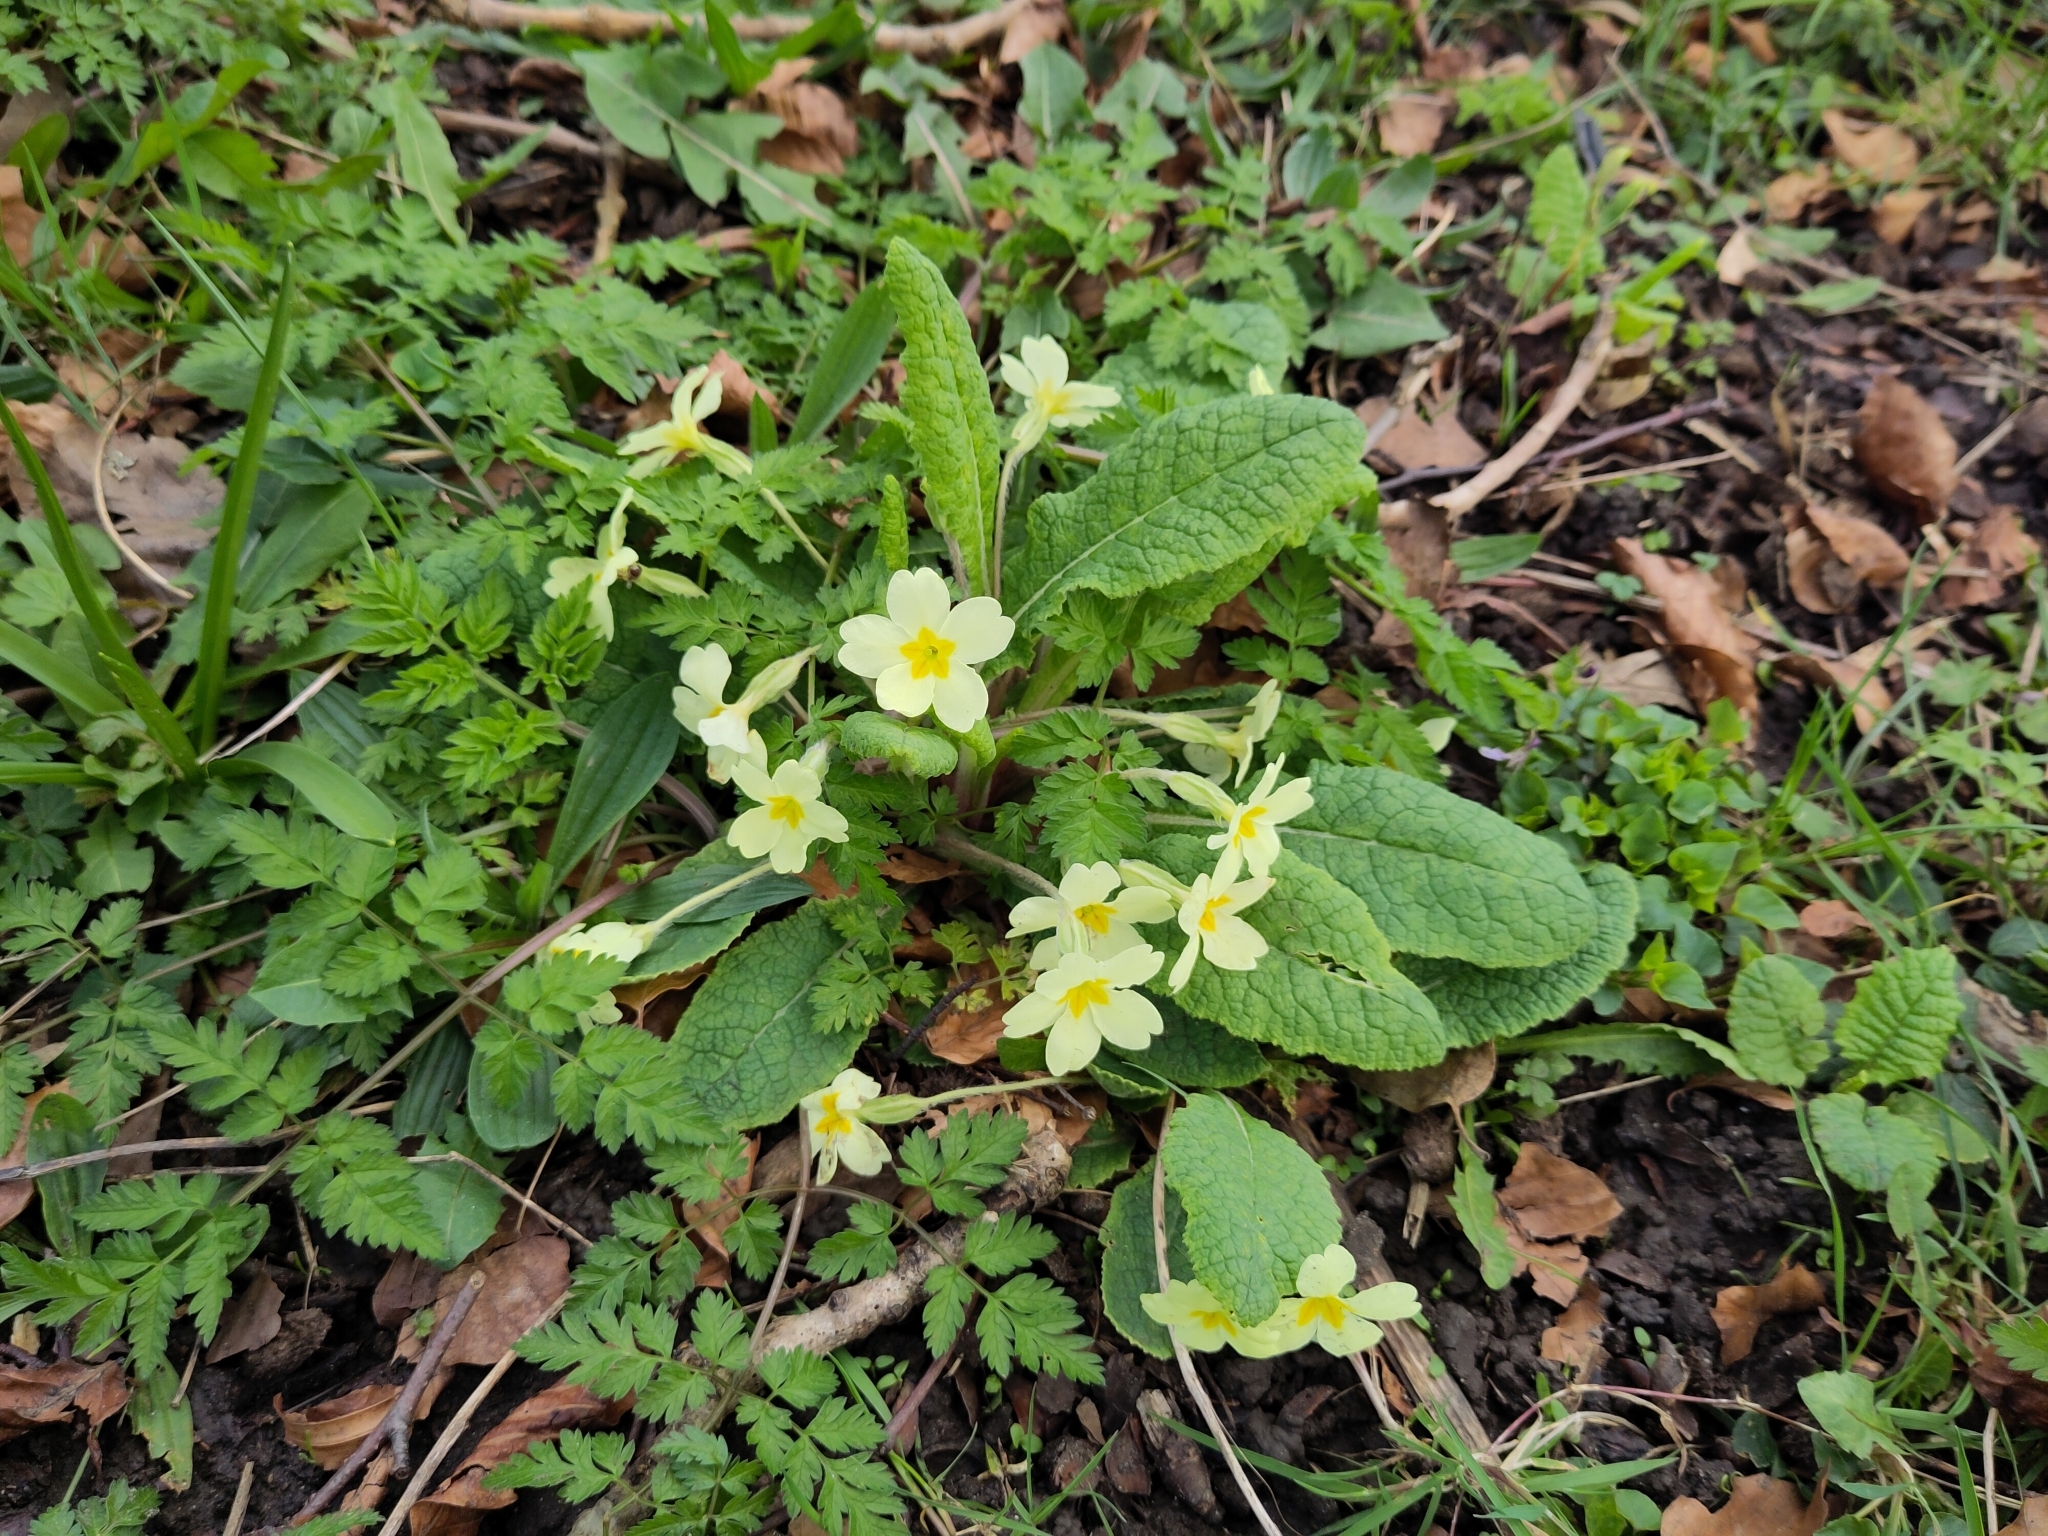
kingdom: Plantae
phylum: Tracheophyta
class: Magnoliopsida
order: Ericales
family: Primulaceae
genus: Primula
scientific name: Primula vulgaris
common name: Primrose
